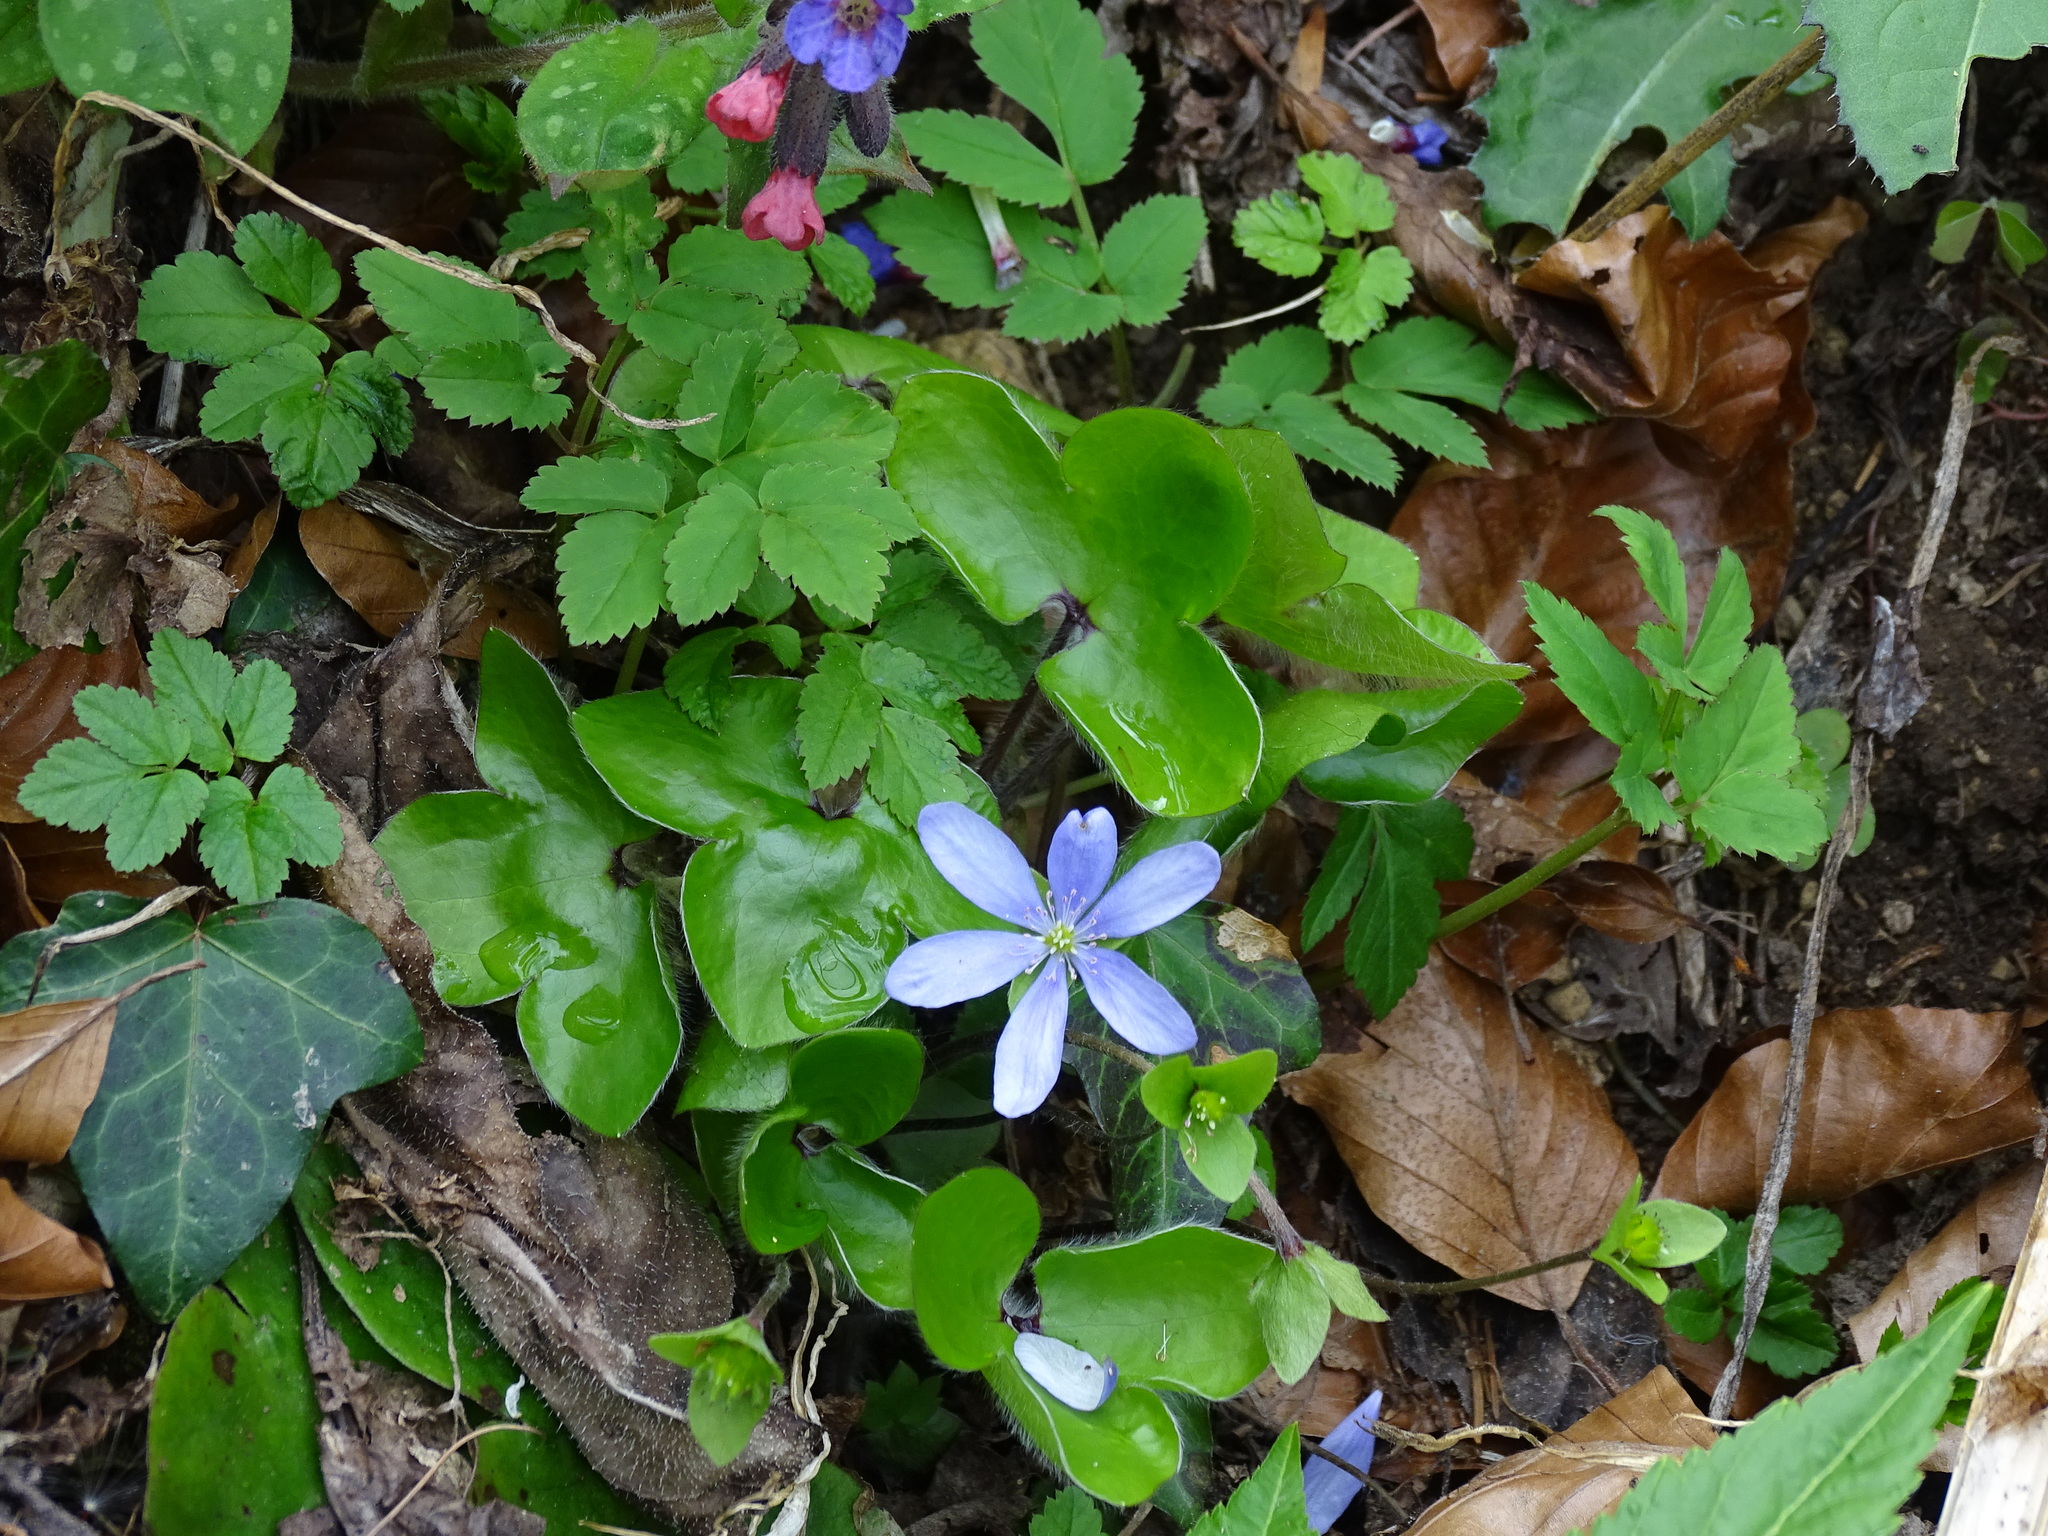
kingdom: Plantae
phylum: Tracheophyta
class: Magnoliopsida
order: Ranunculales
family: Ranunculaceae
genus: Hepatica
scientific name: Hepatica nobilis
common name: Liverleaf
